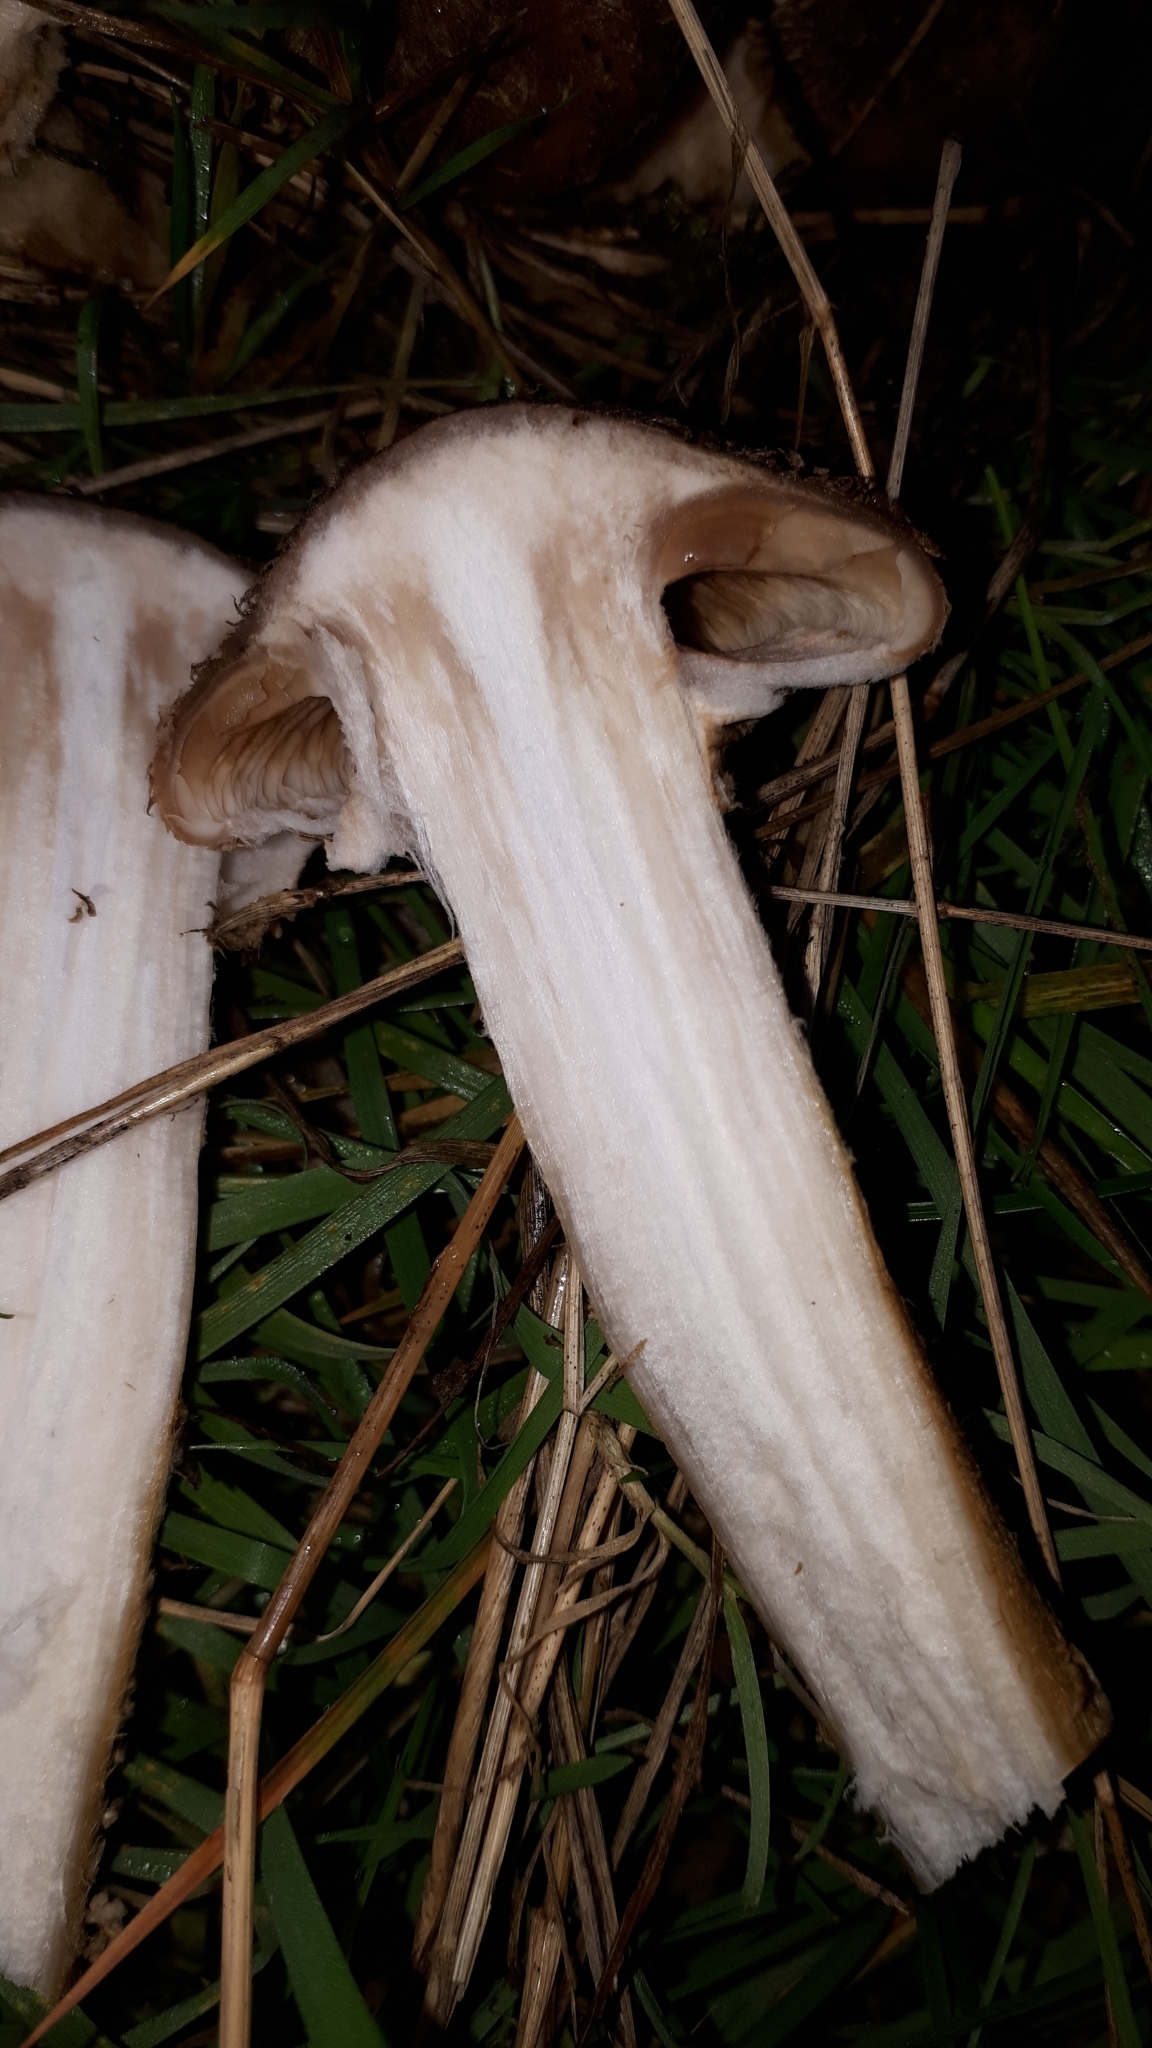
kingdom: Fungi
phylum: Basidiomycota
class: Agaricomycetes
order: Agaricales
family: Physalacriaceae
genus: Armillaria
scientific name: Armillaria ostoyae
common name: Dark honey fungus
